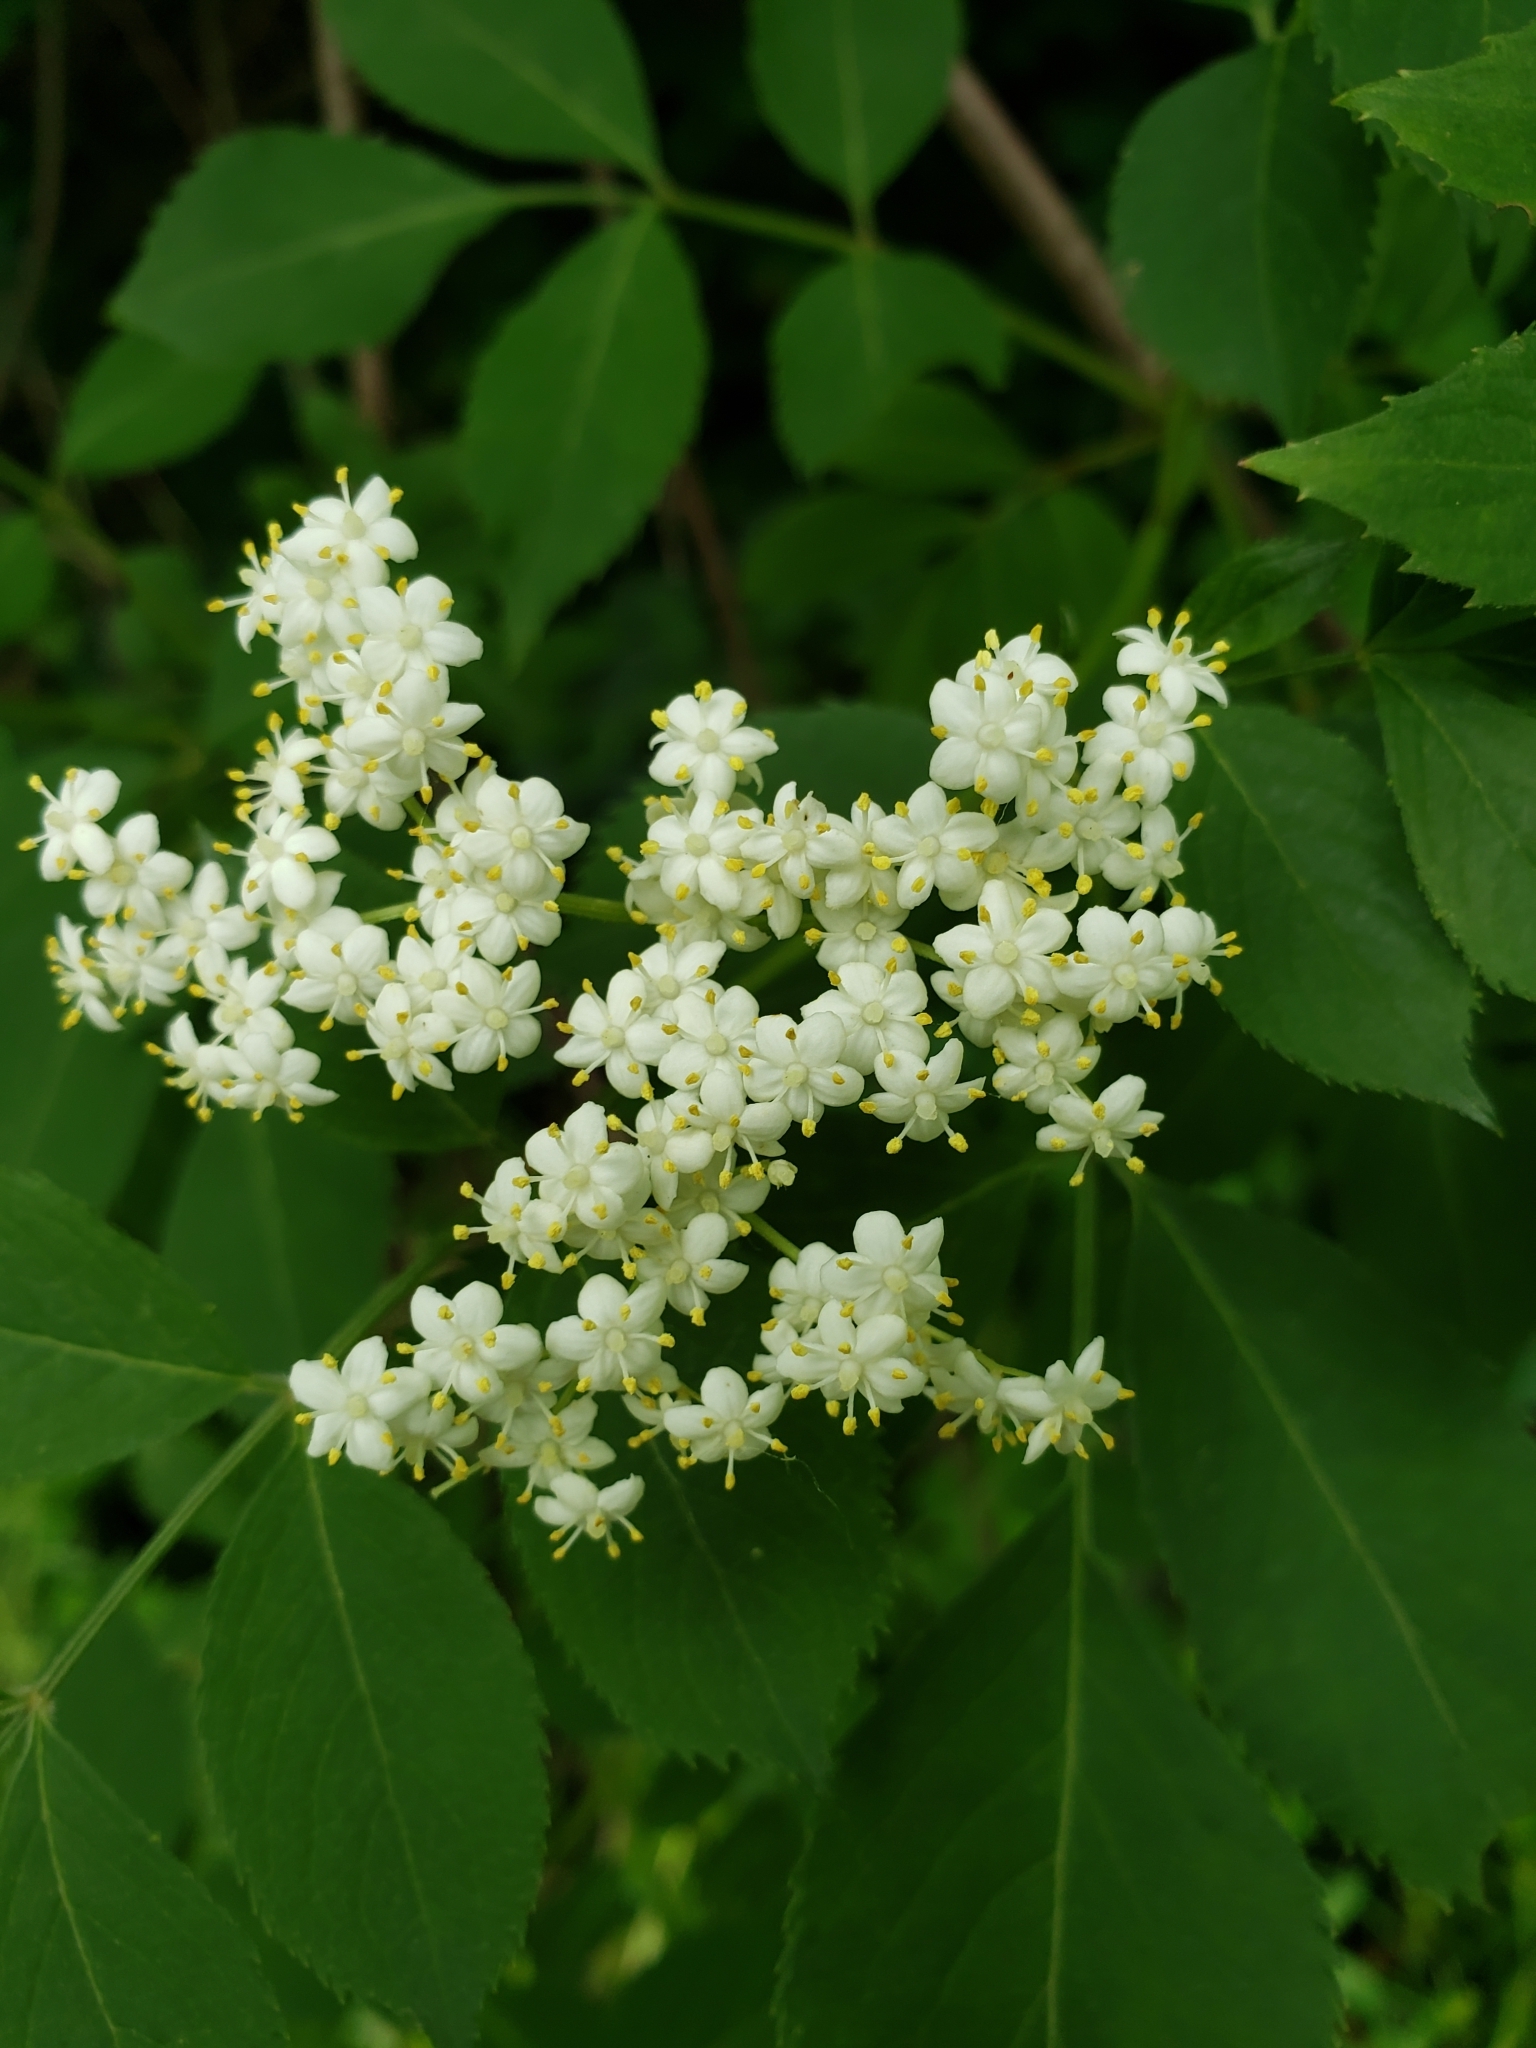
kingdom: Plantae
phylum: Tracheophyta
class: Magnoliopsida
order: Dipsacales
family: Viburnaceae
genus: Sambucus
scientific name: Sambucus canadensis
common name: American elder
